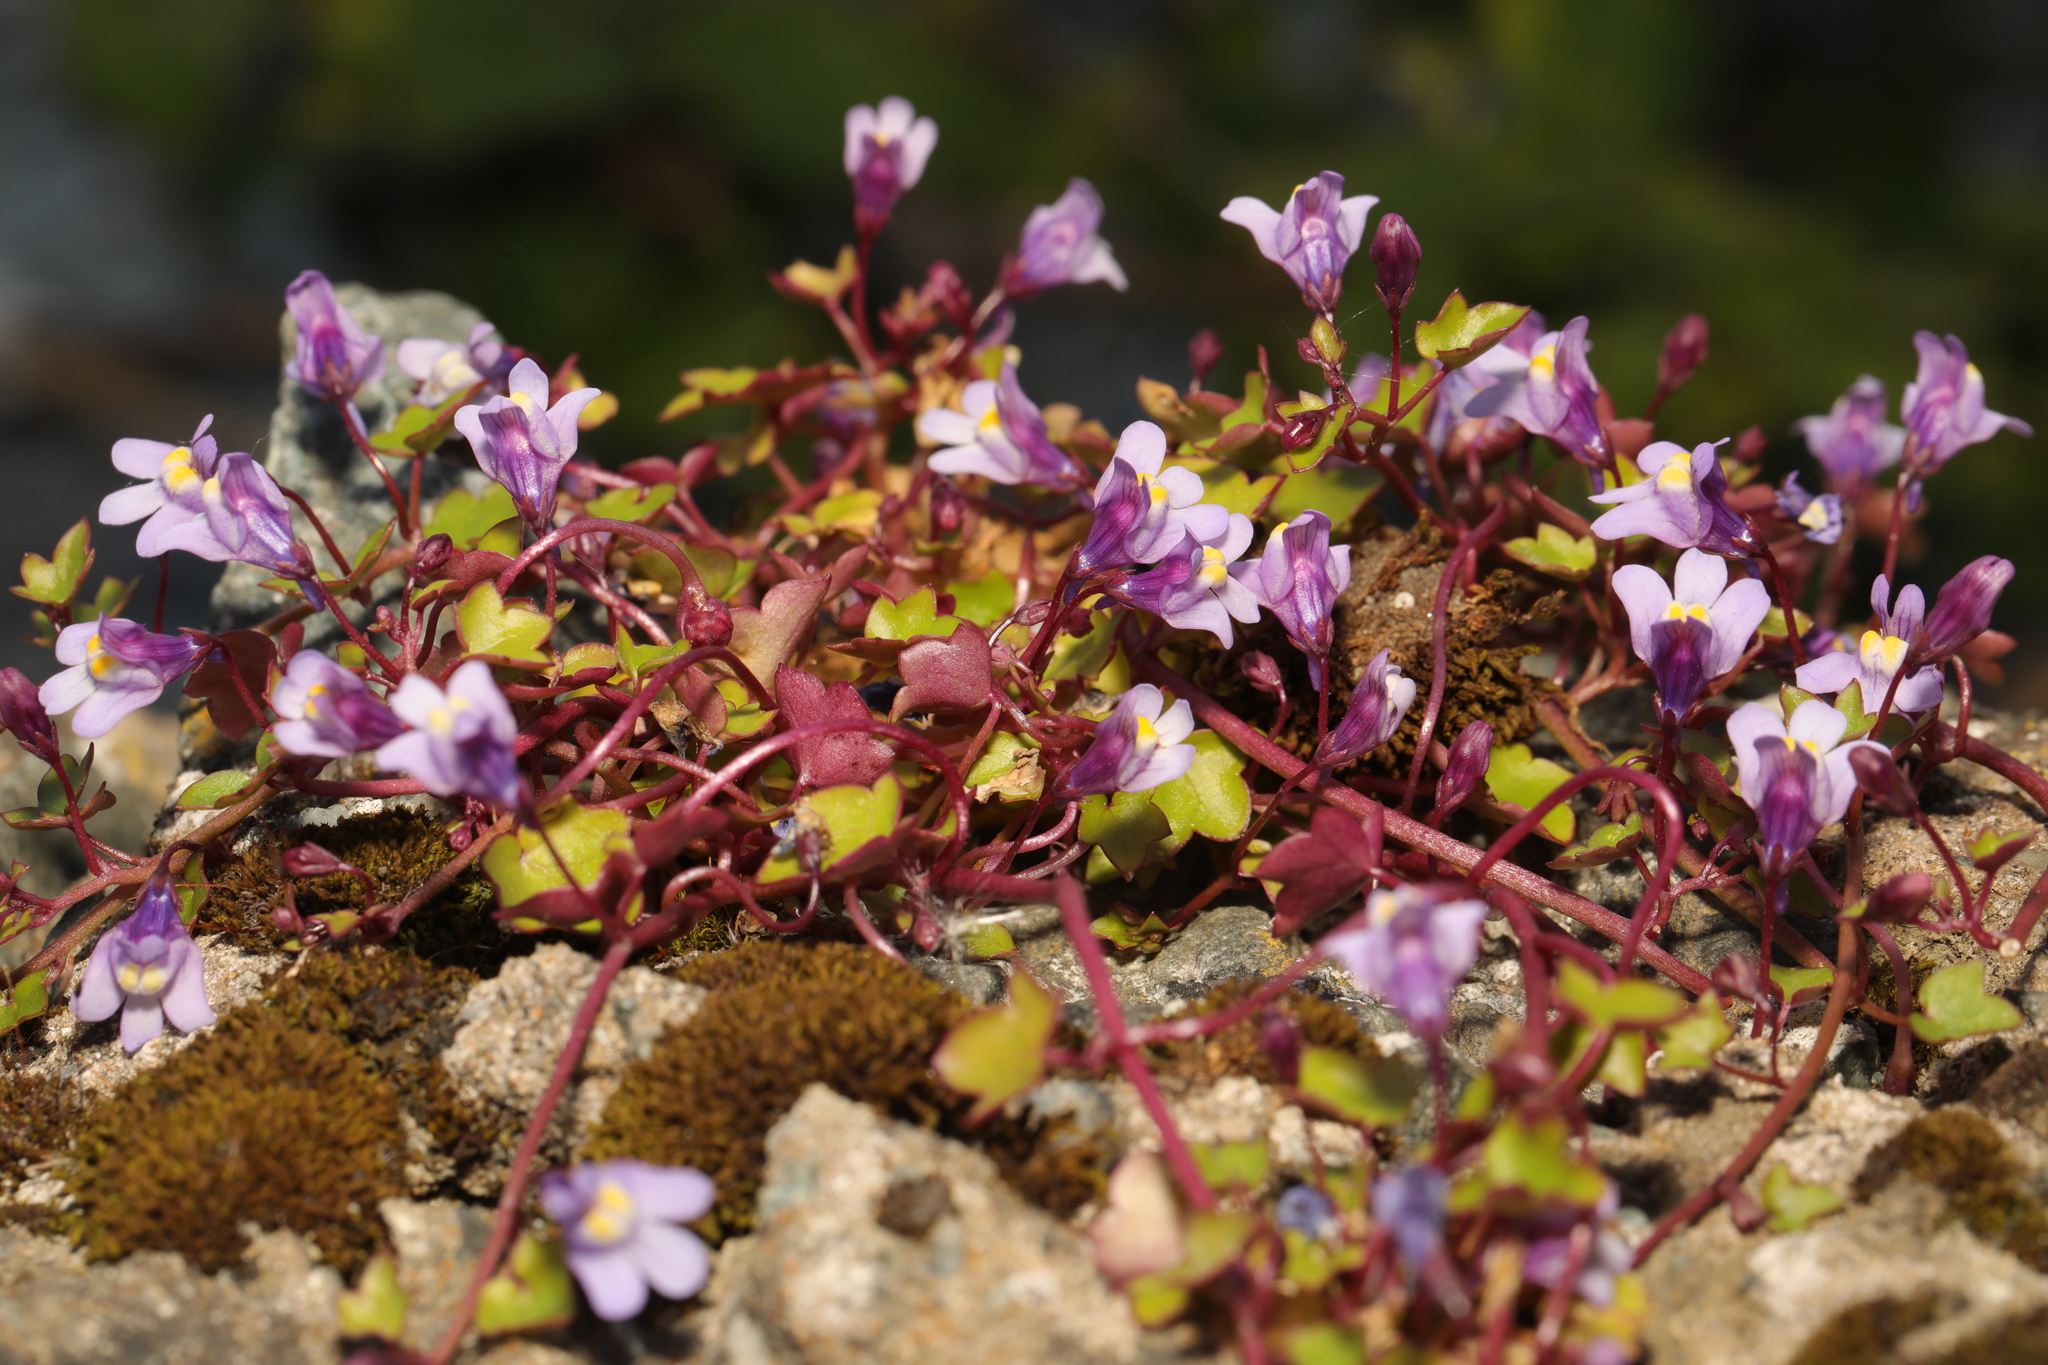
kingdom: Plantae
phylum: Tracheophyta
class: Magnoliopsida
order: Lamiales
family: Plantaginaceae
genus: Cymbalaria
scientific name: Cymbalaria muralis
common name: Ivy-leaved toadflax
